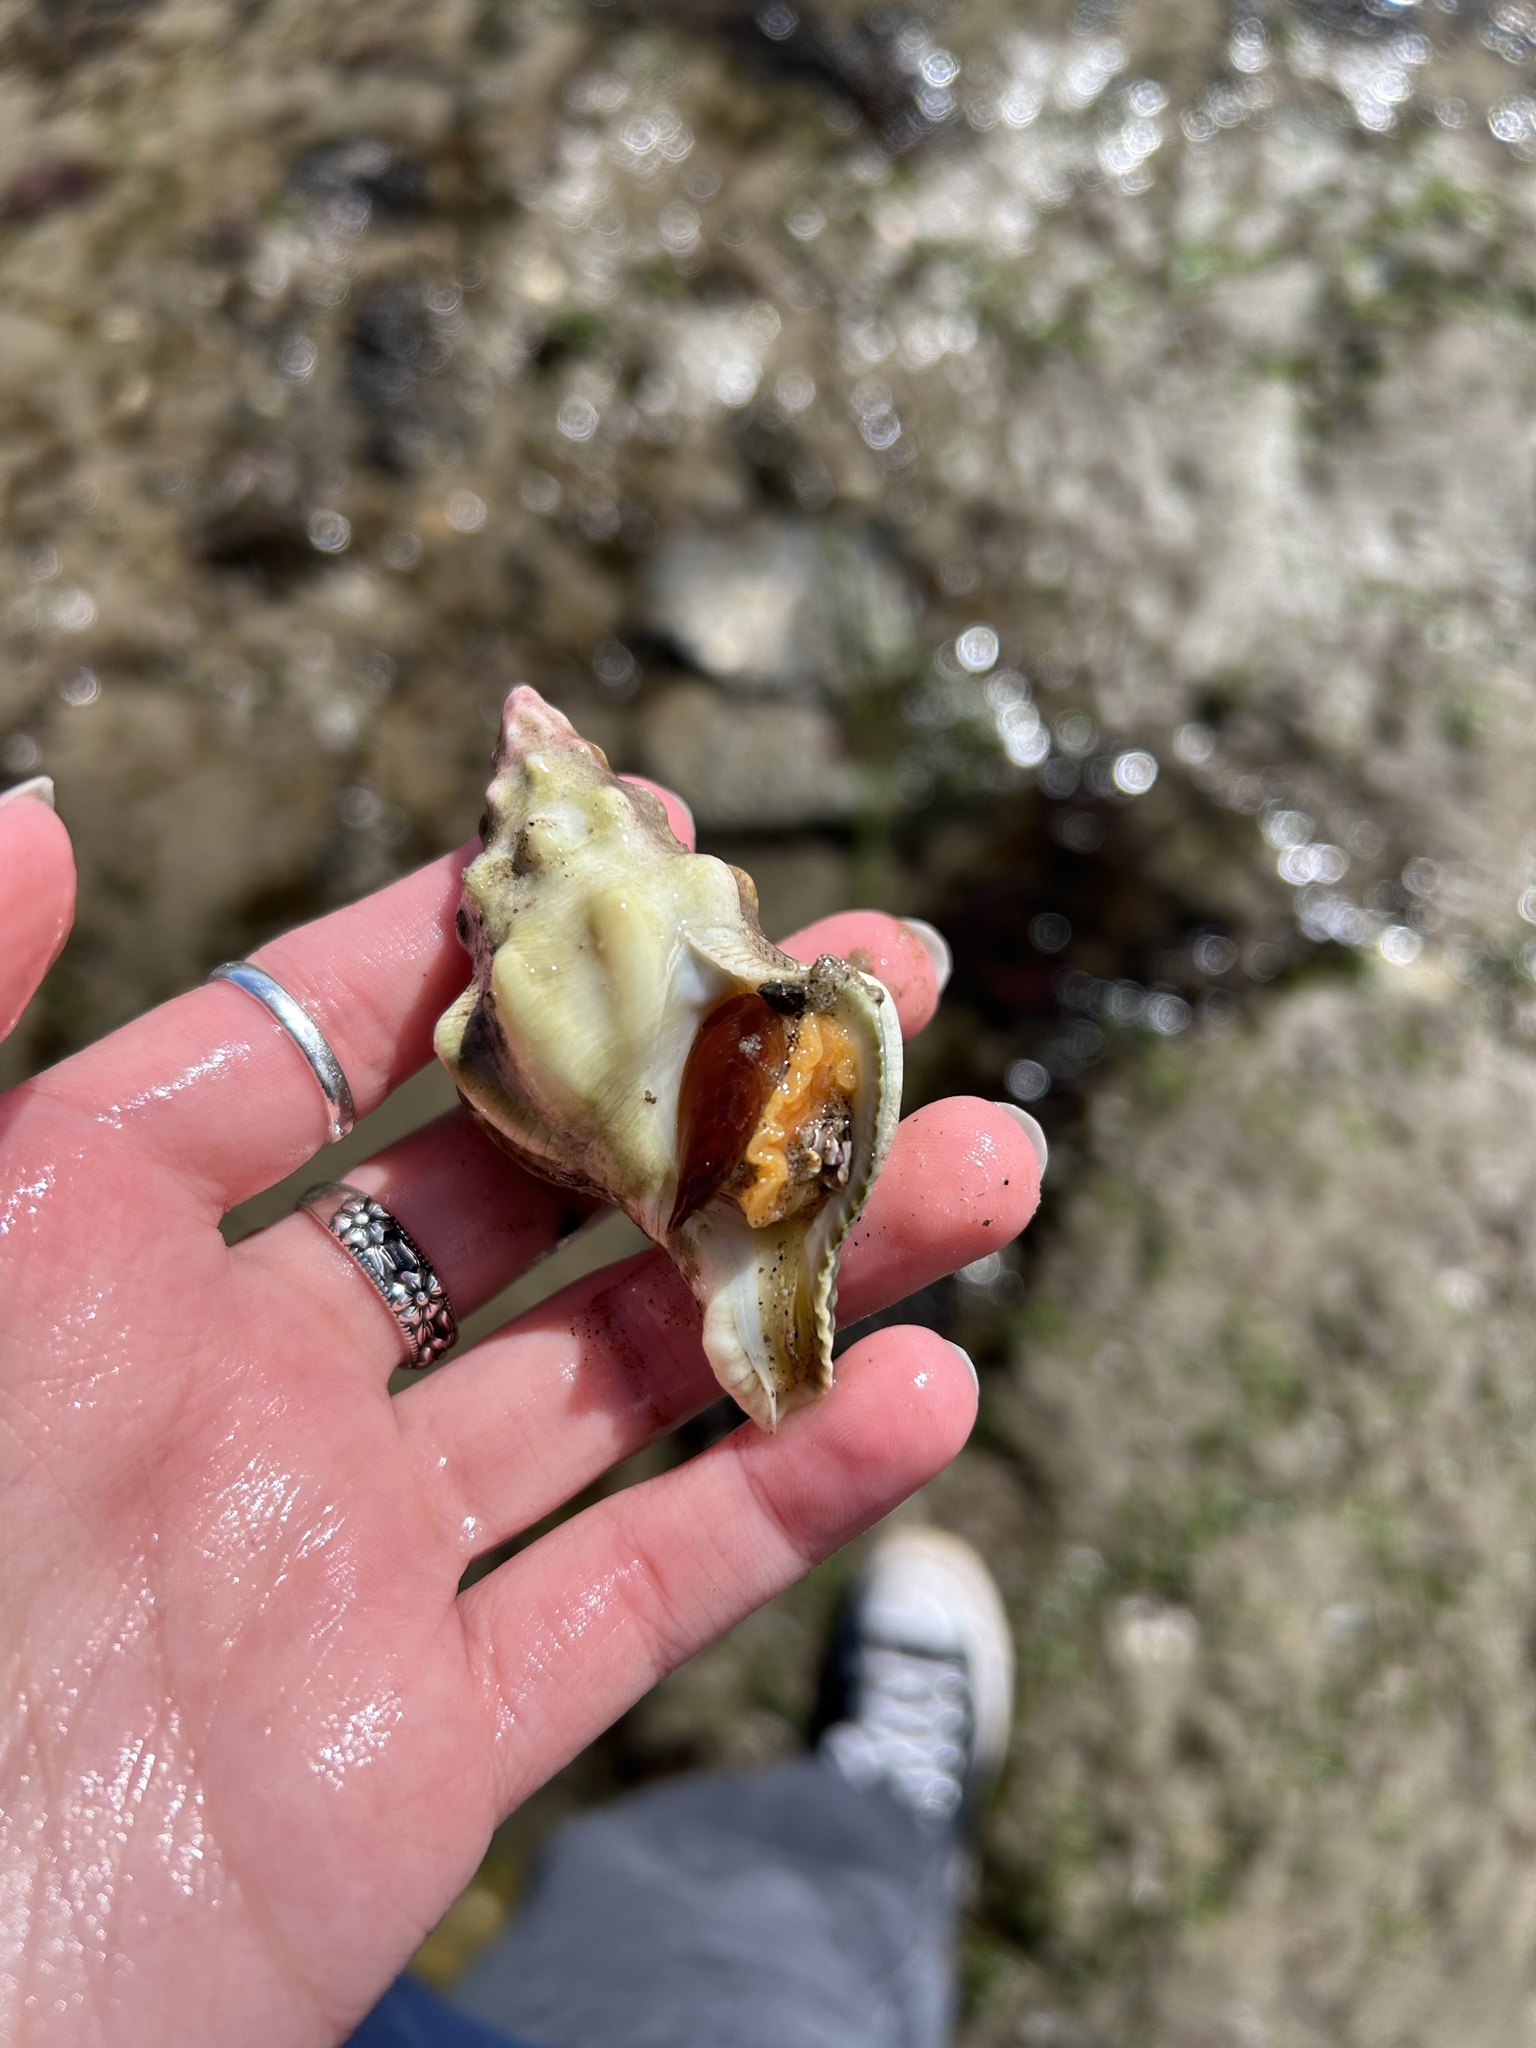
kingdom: Animalia
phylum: Mollusca
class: Gastropoda
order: Neogastropoda
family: Austrosiphonidae
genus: Kelletia
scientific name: Kelletia kelletii
